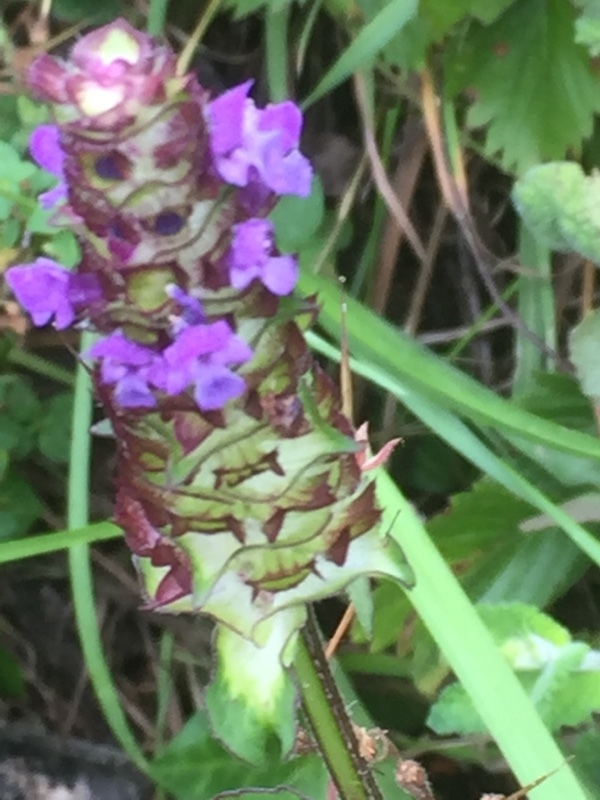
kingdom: Plantae
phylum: Tracheophyta
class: Magnoliopsida
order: Lamiales
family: Lamiaceae
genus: Prunella
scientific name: Prunella vulgaris
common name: Heal-all
